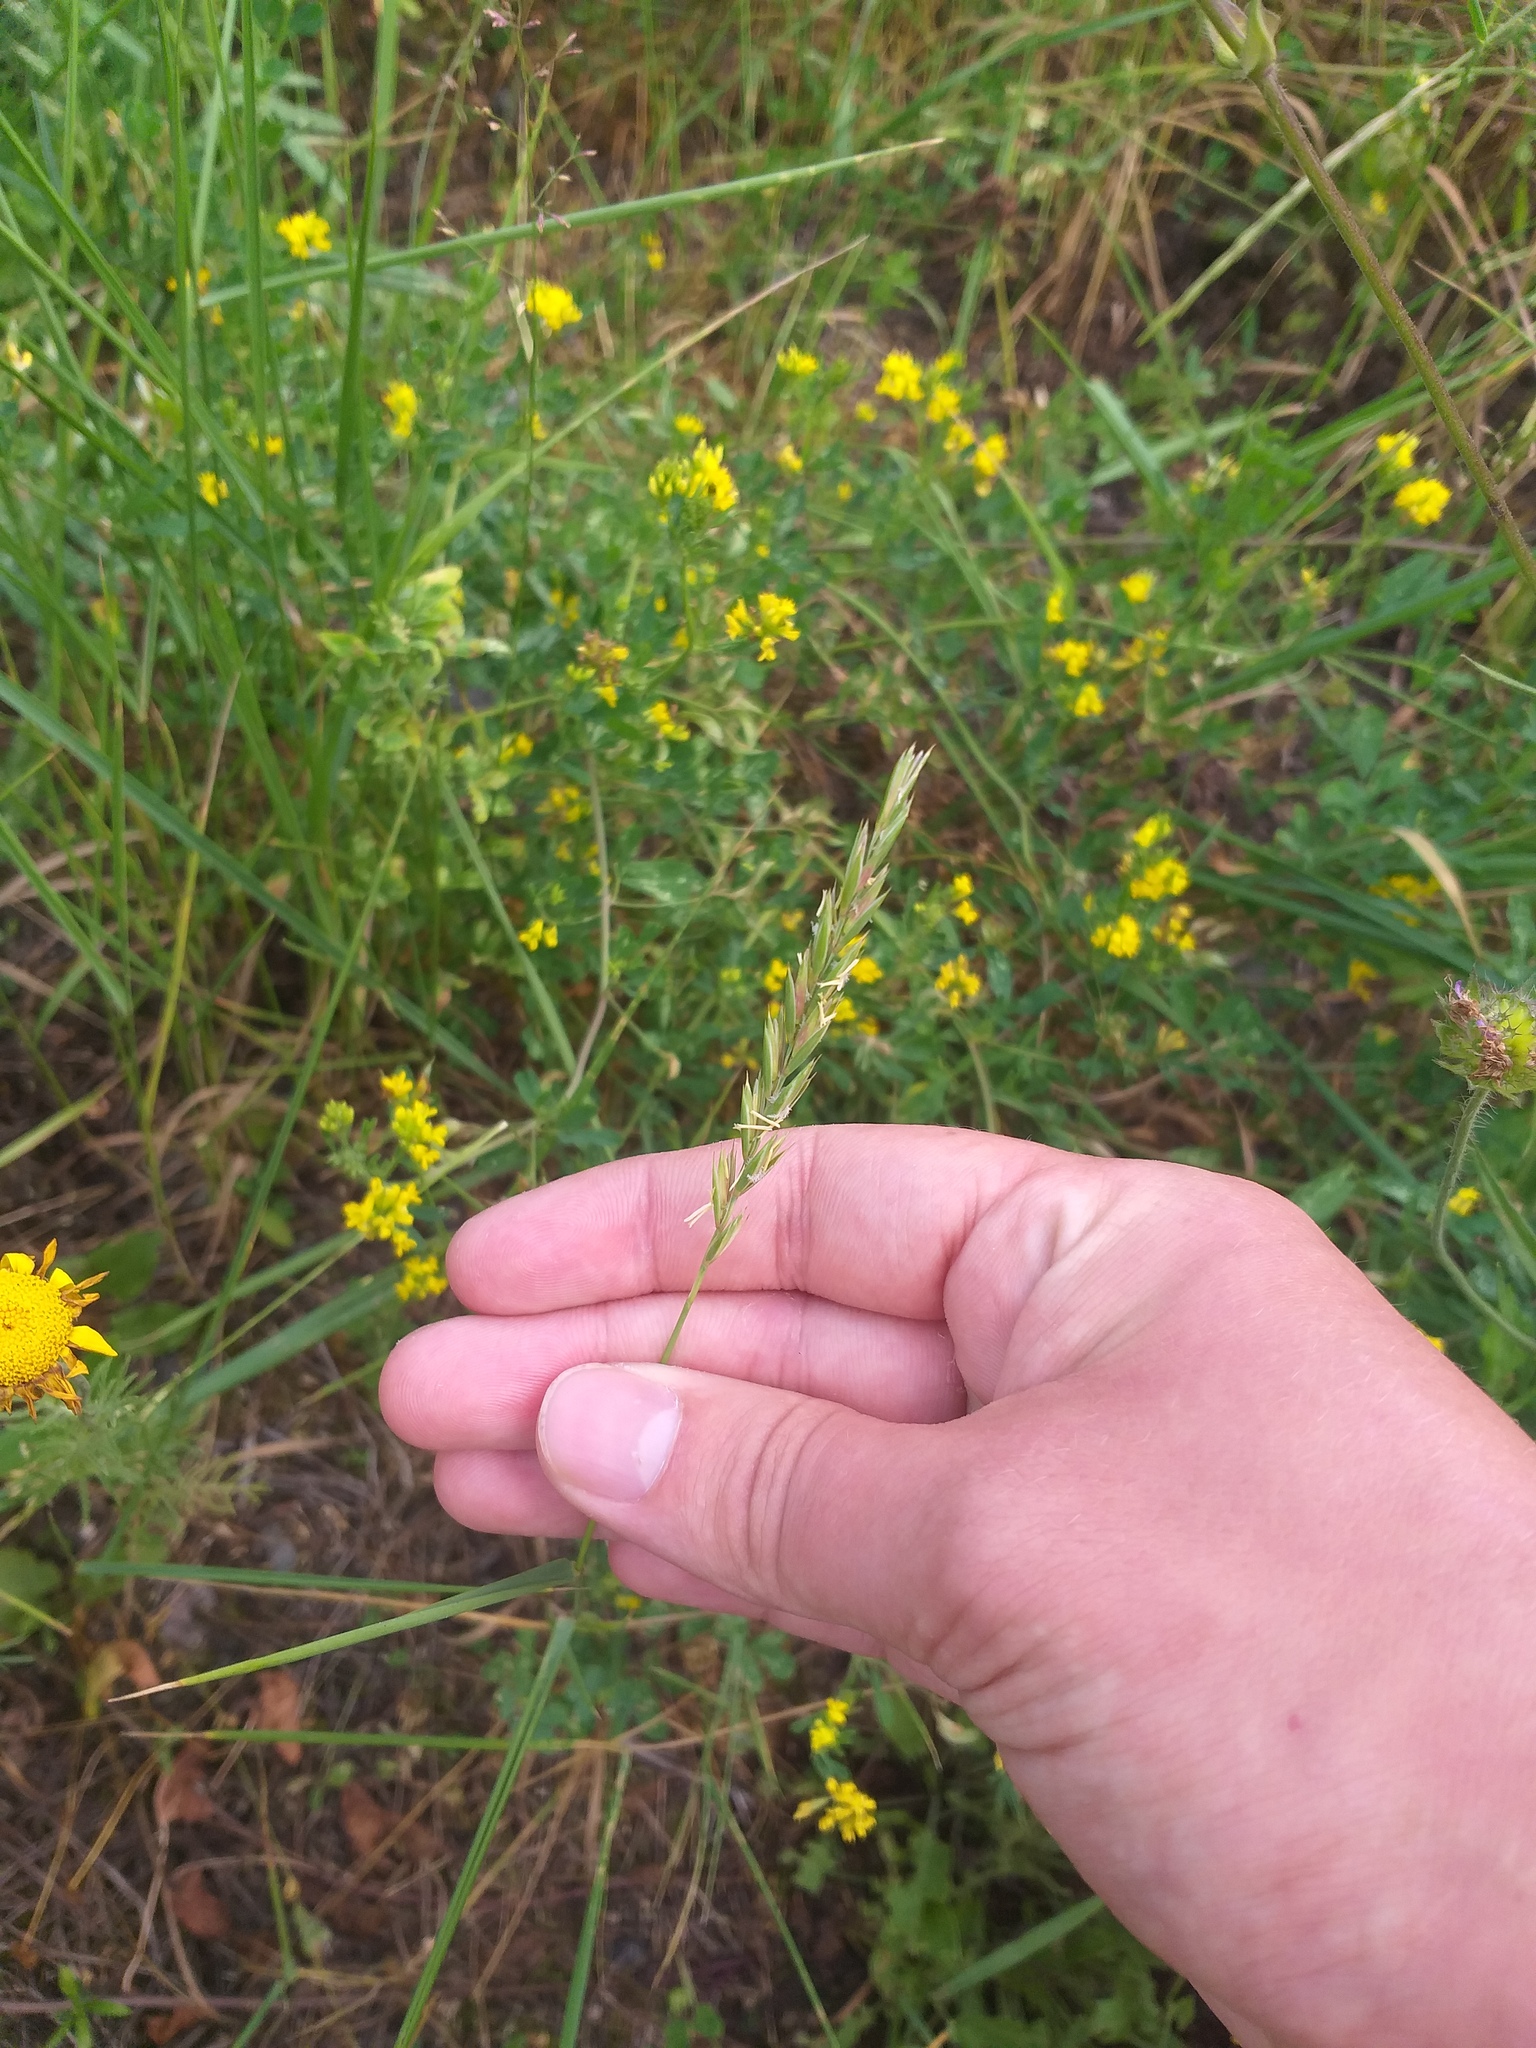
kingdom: Plantae
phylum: Tracheophyta
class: Liliopsida
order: Poales
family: Poaceae
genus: Elymus
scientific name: Elymus repens
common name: Quackgrass
